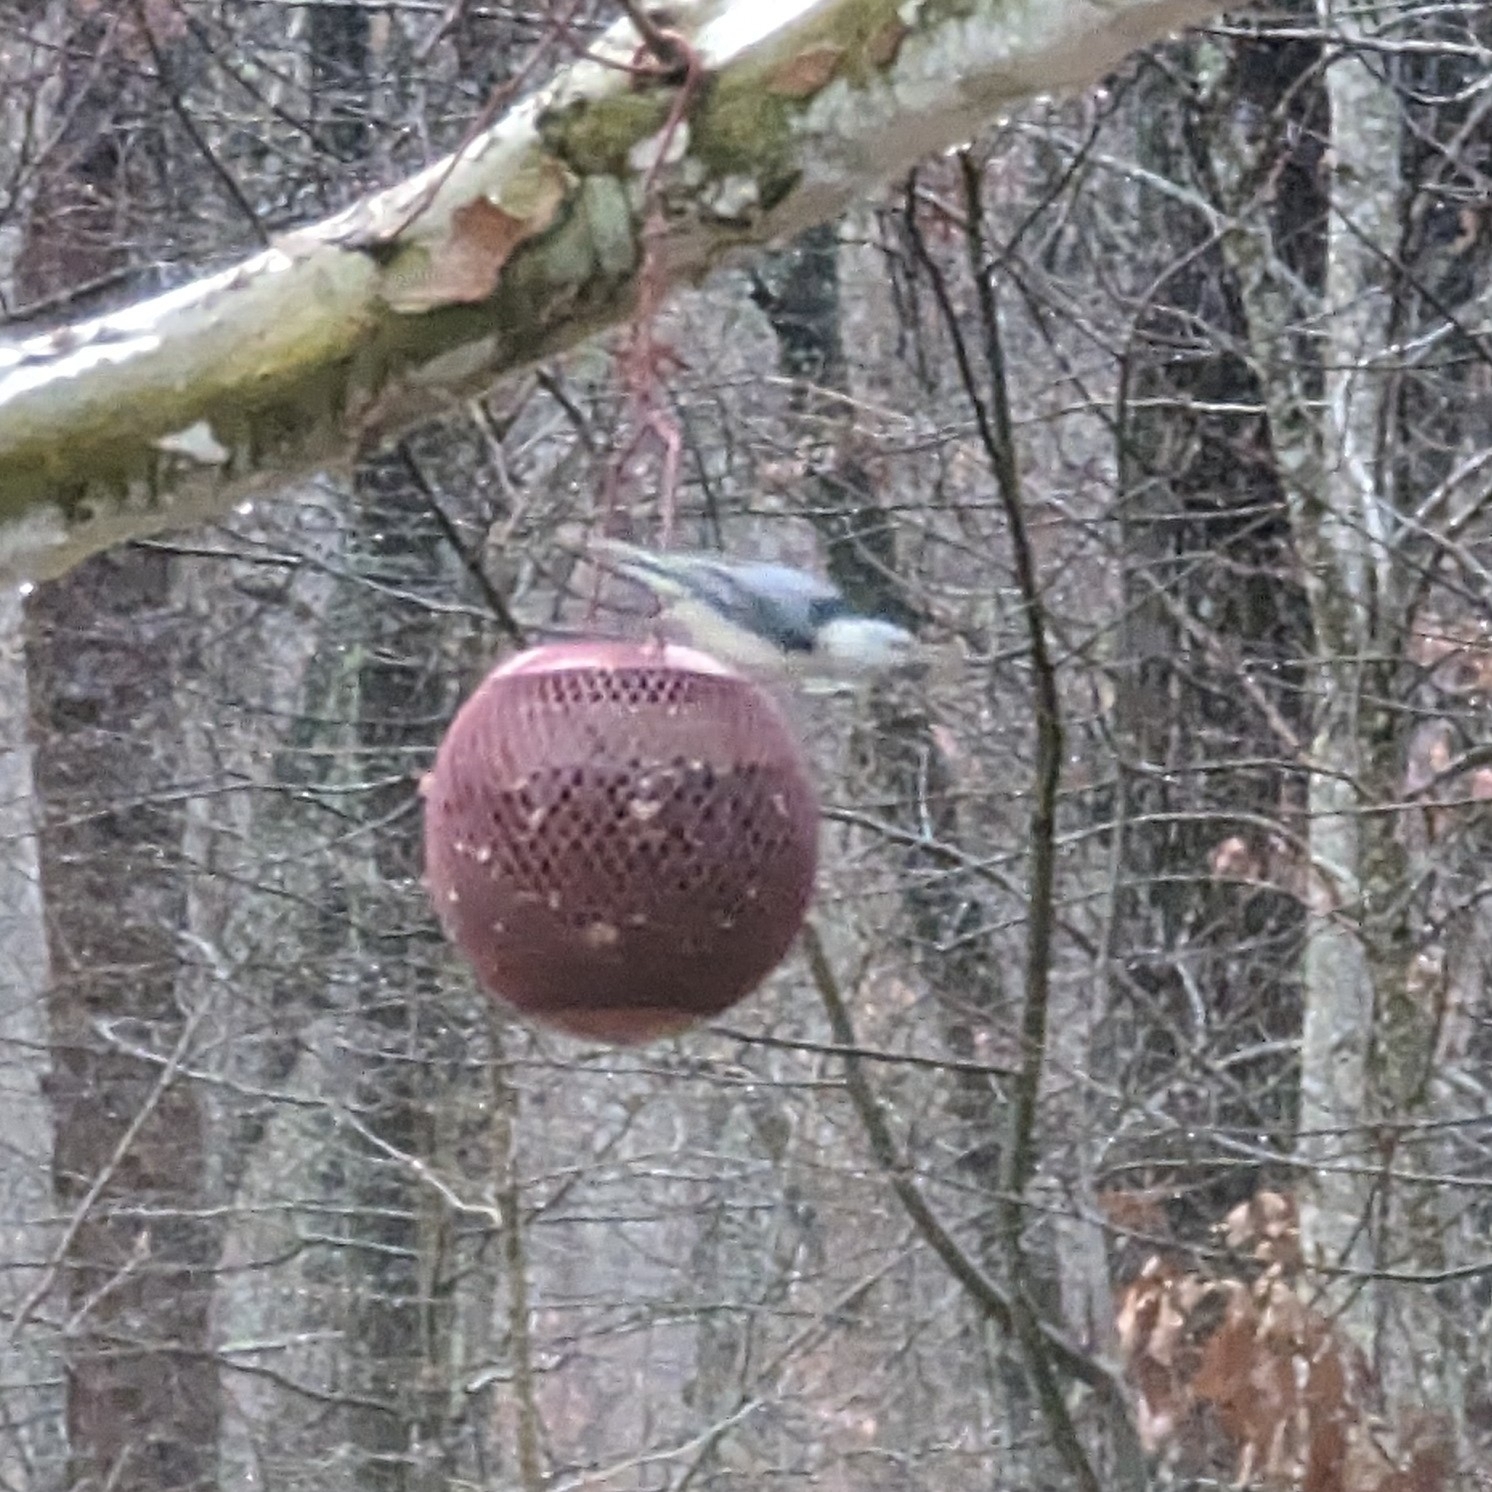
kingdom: Animalia
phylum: Chordata
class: Aves
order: Passeriformes
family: Sittidae
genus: Sitta
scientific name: Sitta carolinensis
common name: White-breasted nuthatch
